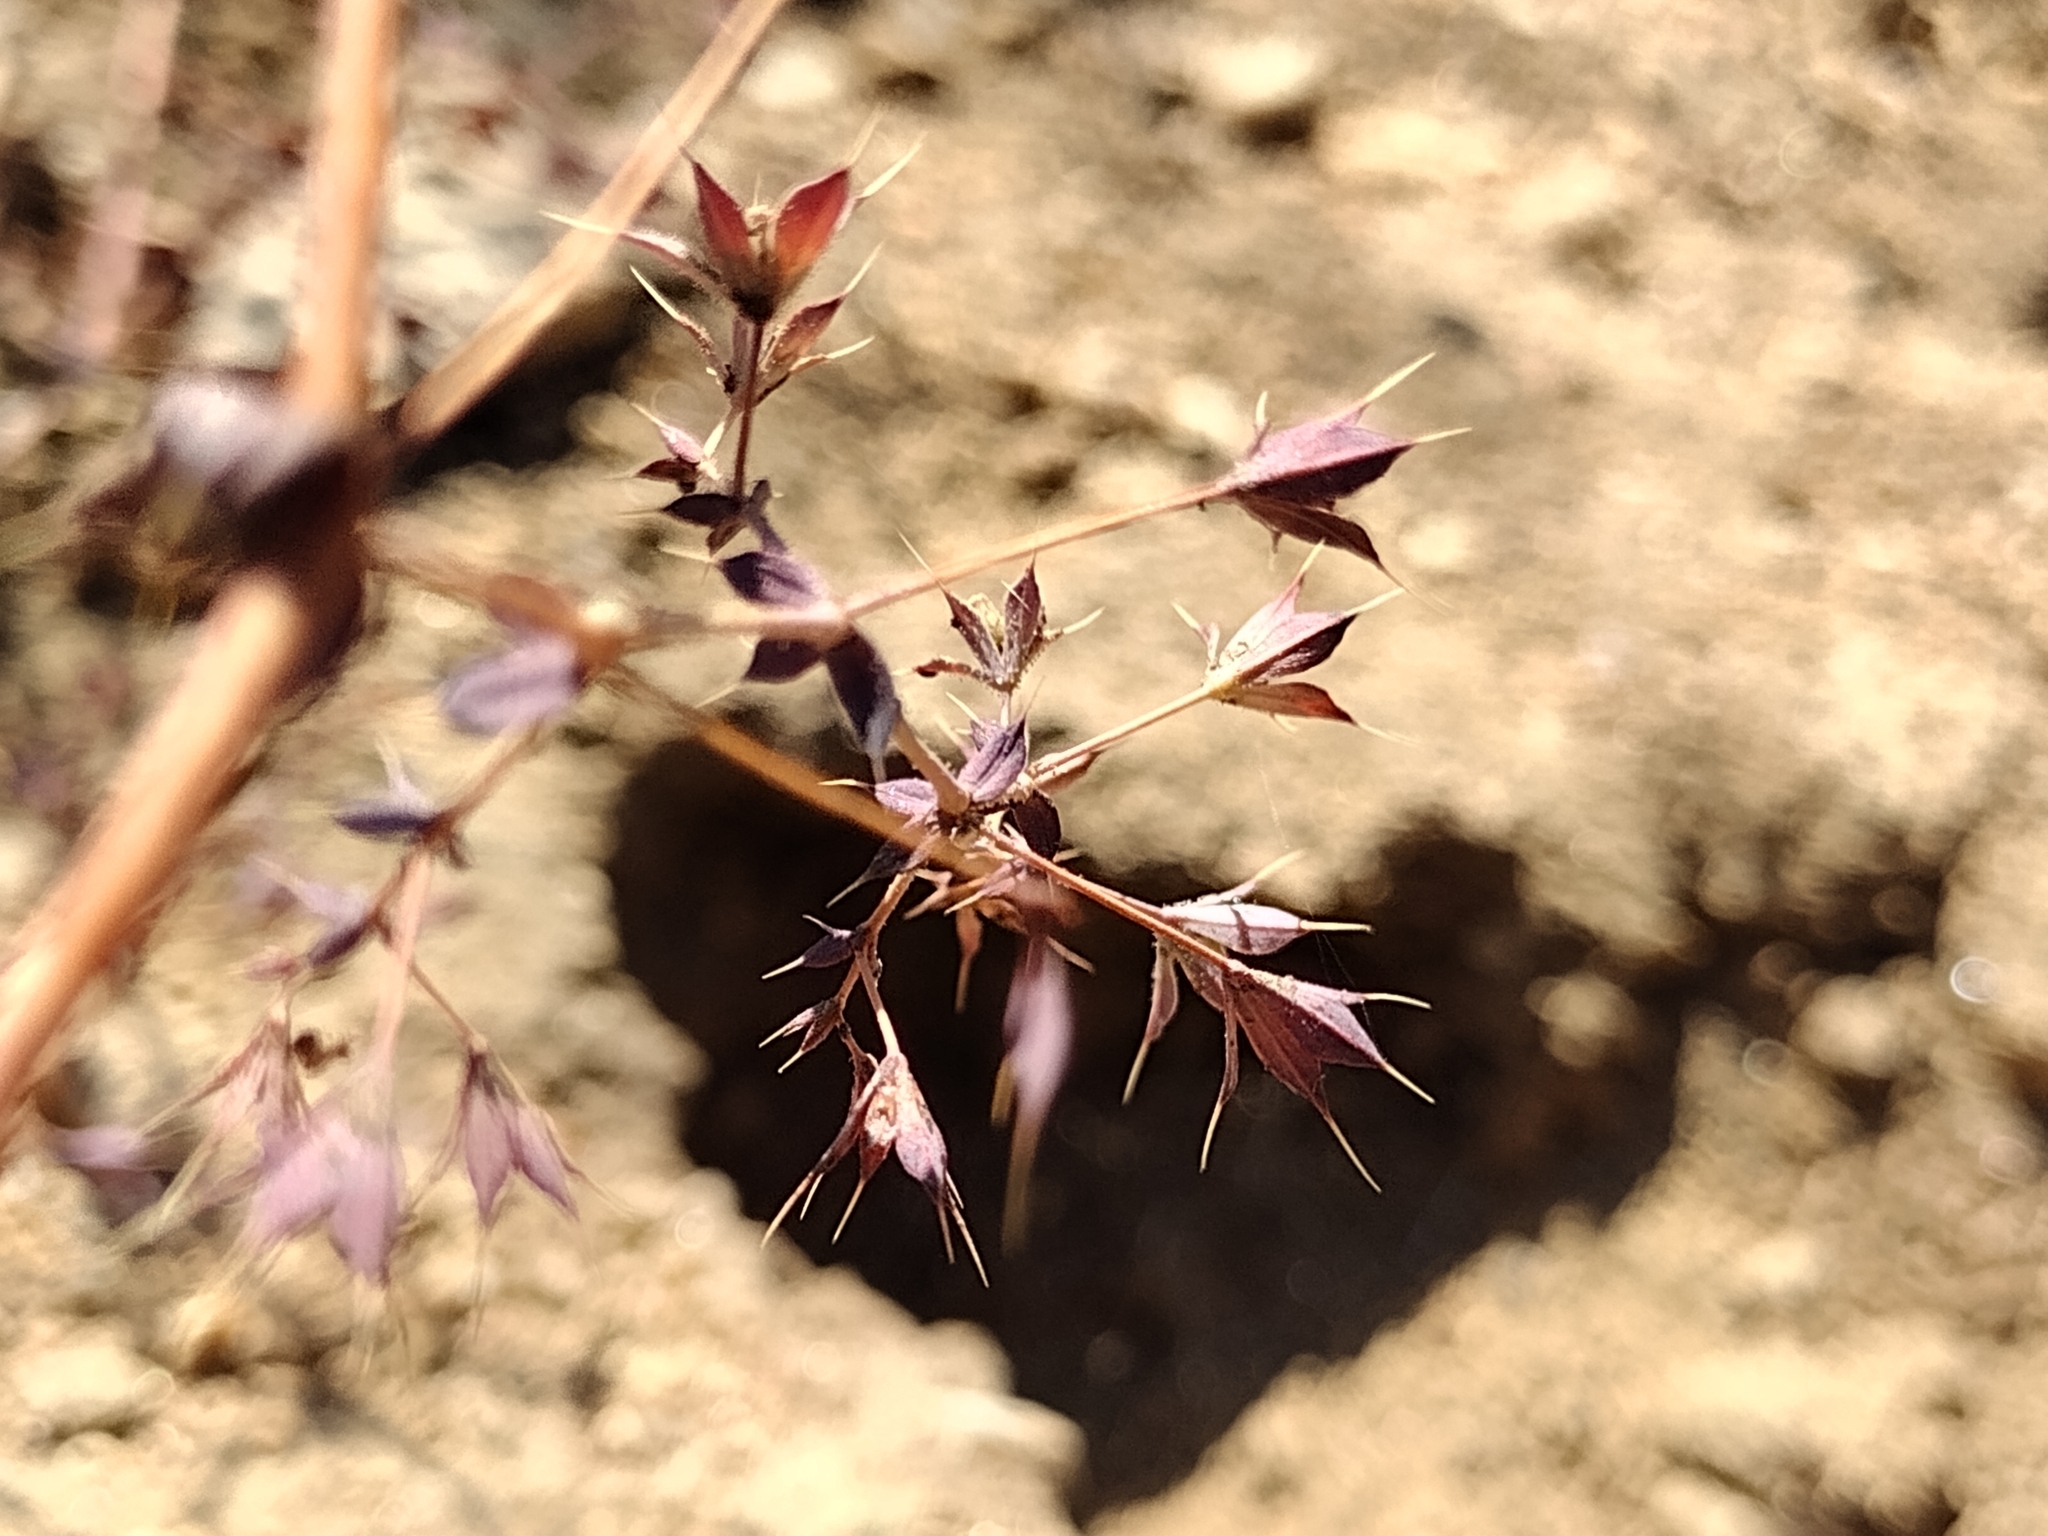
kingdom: Plantae
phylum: Tracheophyta
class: Magnoliopsida
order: Caryophyllales
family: Polygonaceae
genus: Sidotheca
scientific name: Sidotheca trilobata
